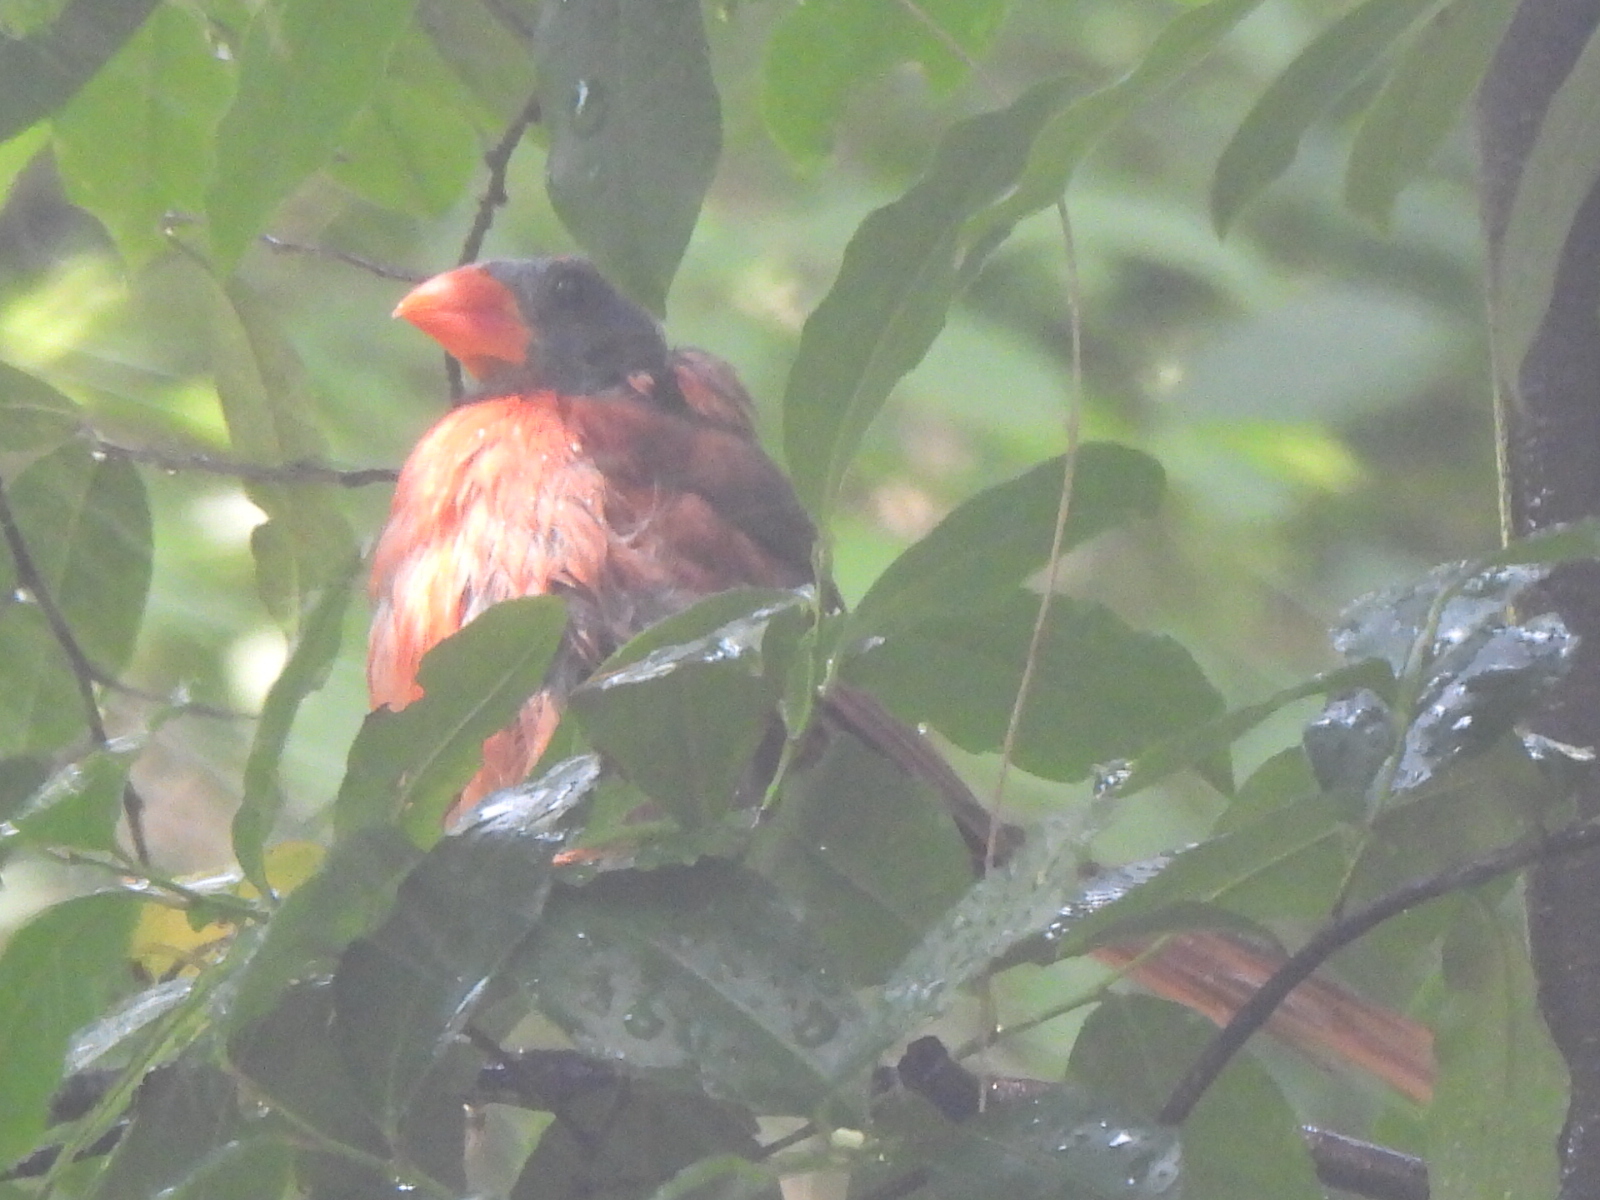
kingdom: Animalia
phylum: Chordata
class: Aves
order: Passeriformes
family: Cardinalidae
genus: Cardinalis
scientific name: Cardinalis cardinalis
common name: Northern cardinal
